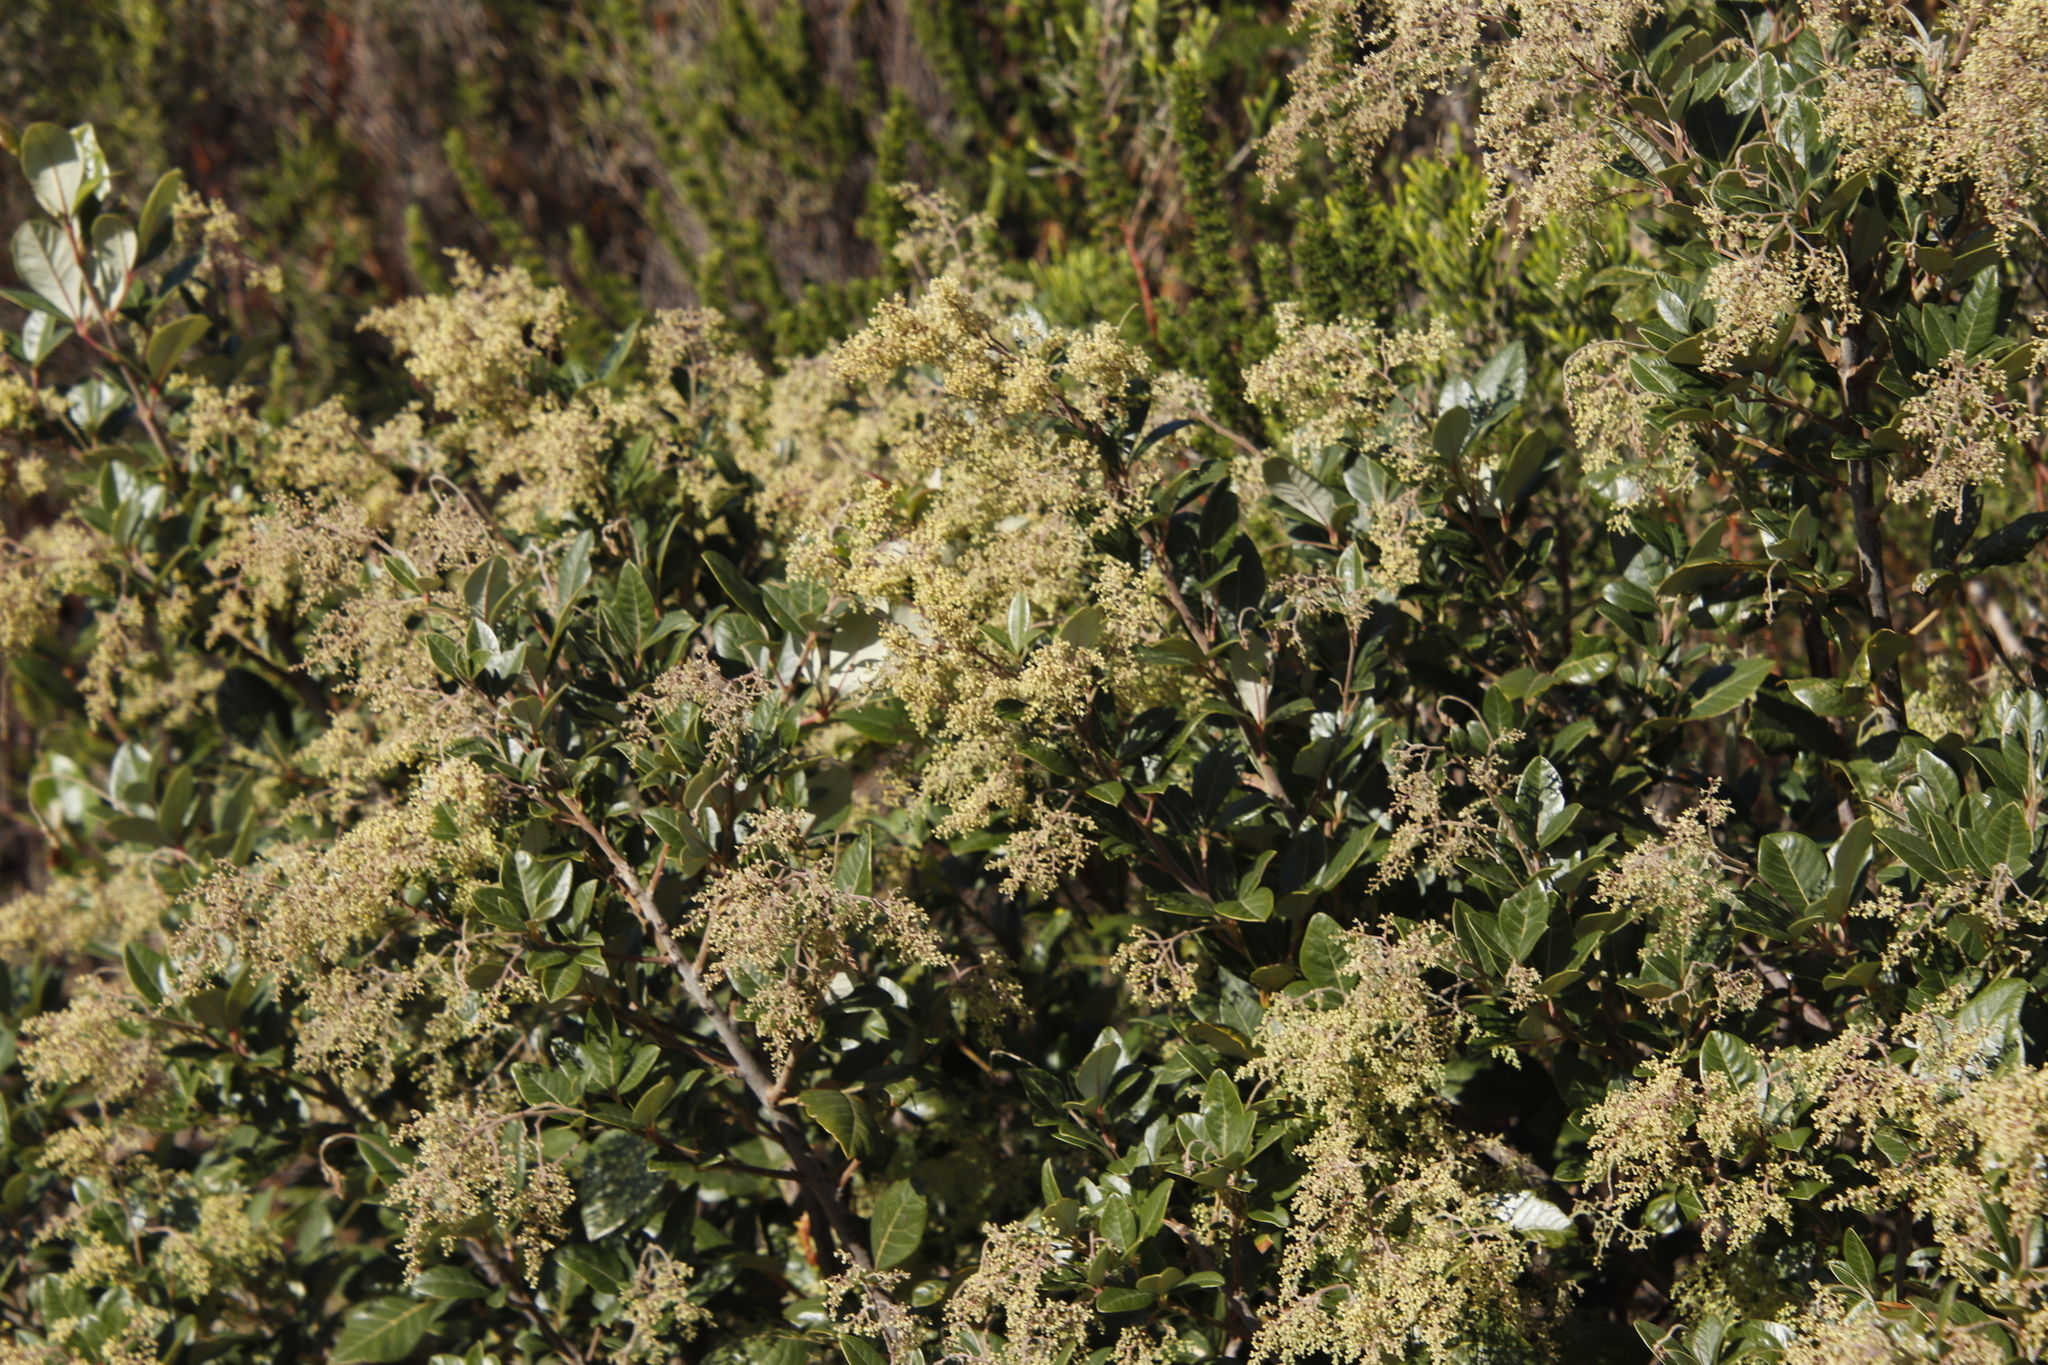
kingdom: Plantae
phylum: Tracheophyta
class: Magnoliopsida
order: Sapindales
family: Anacardiaceae
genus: Searsia
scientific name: Searsia tomentosa
